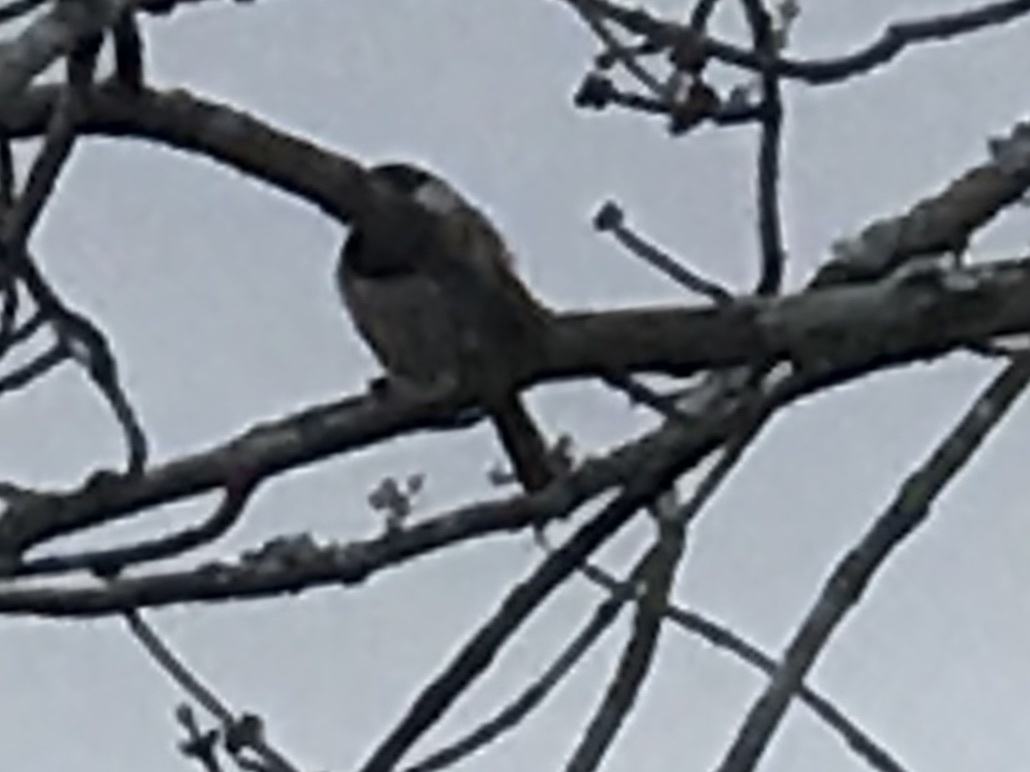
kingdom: Animalia
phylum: Chordata
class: Aves
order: Passeriformes
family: Paridae
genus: Poecile
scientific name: Poecile carolinensis
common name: Carolina chickadee
